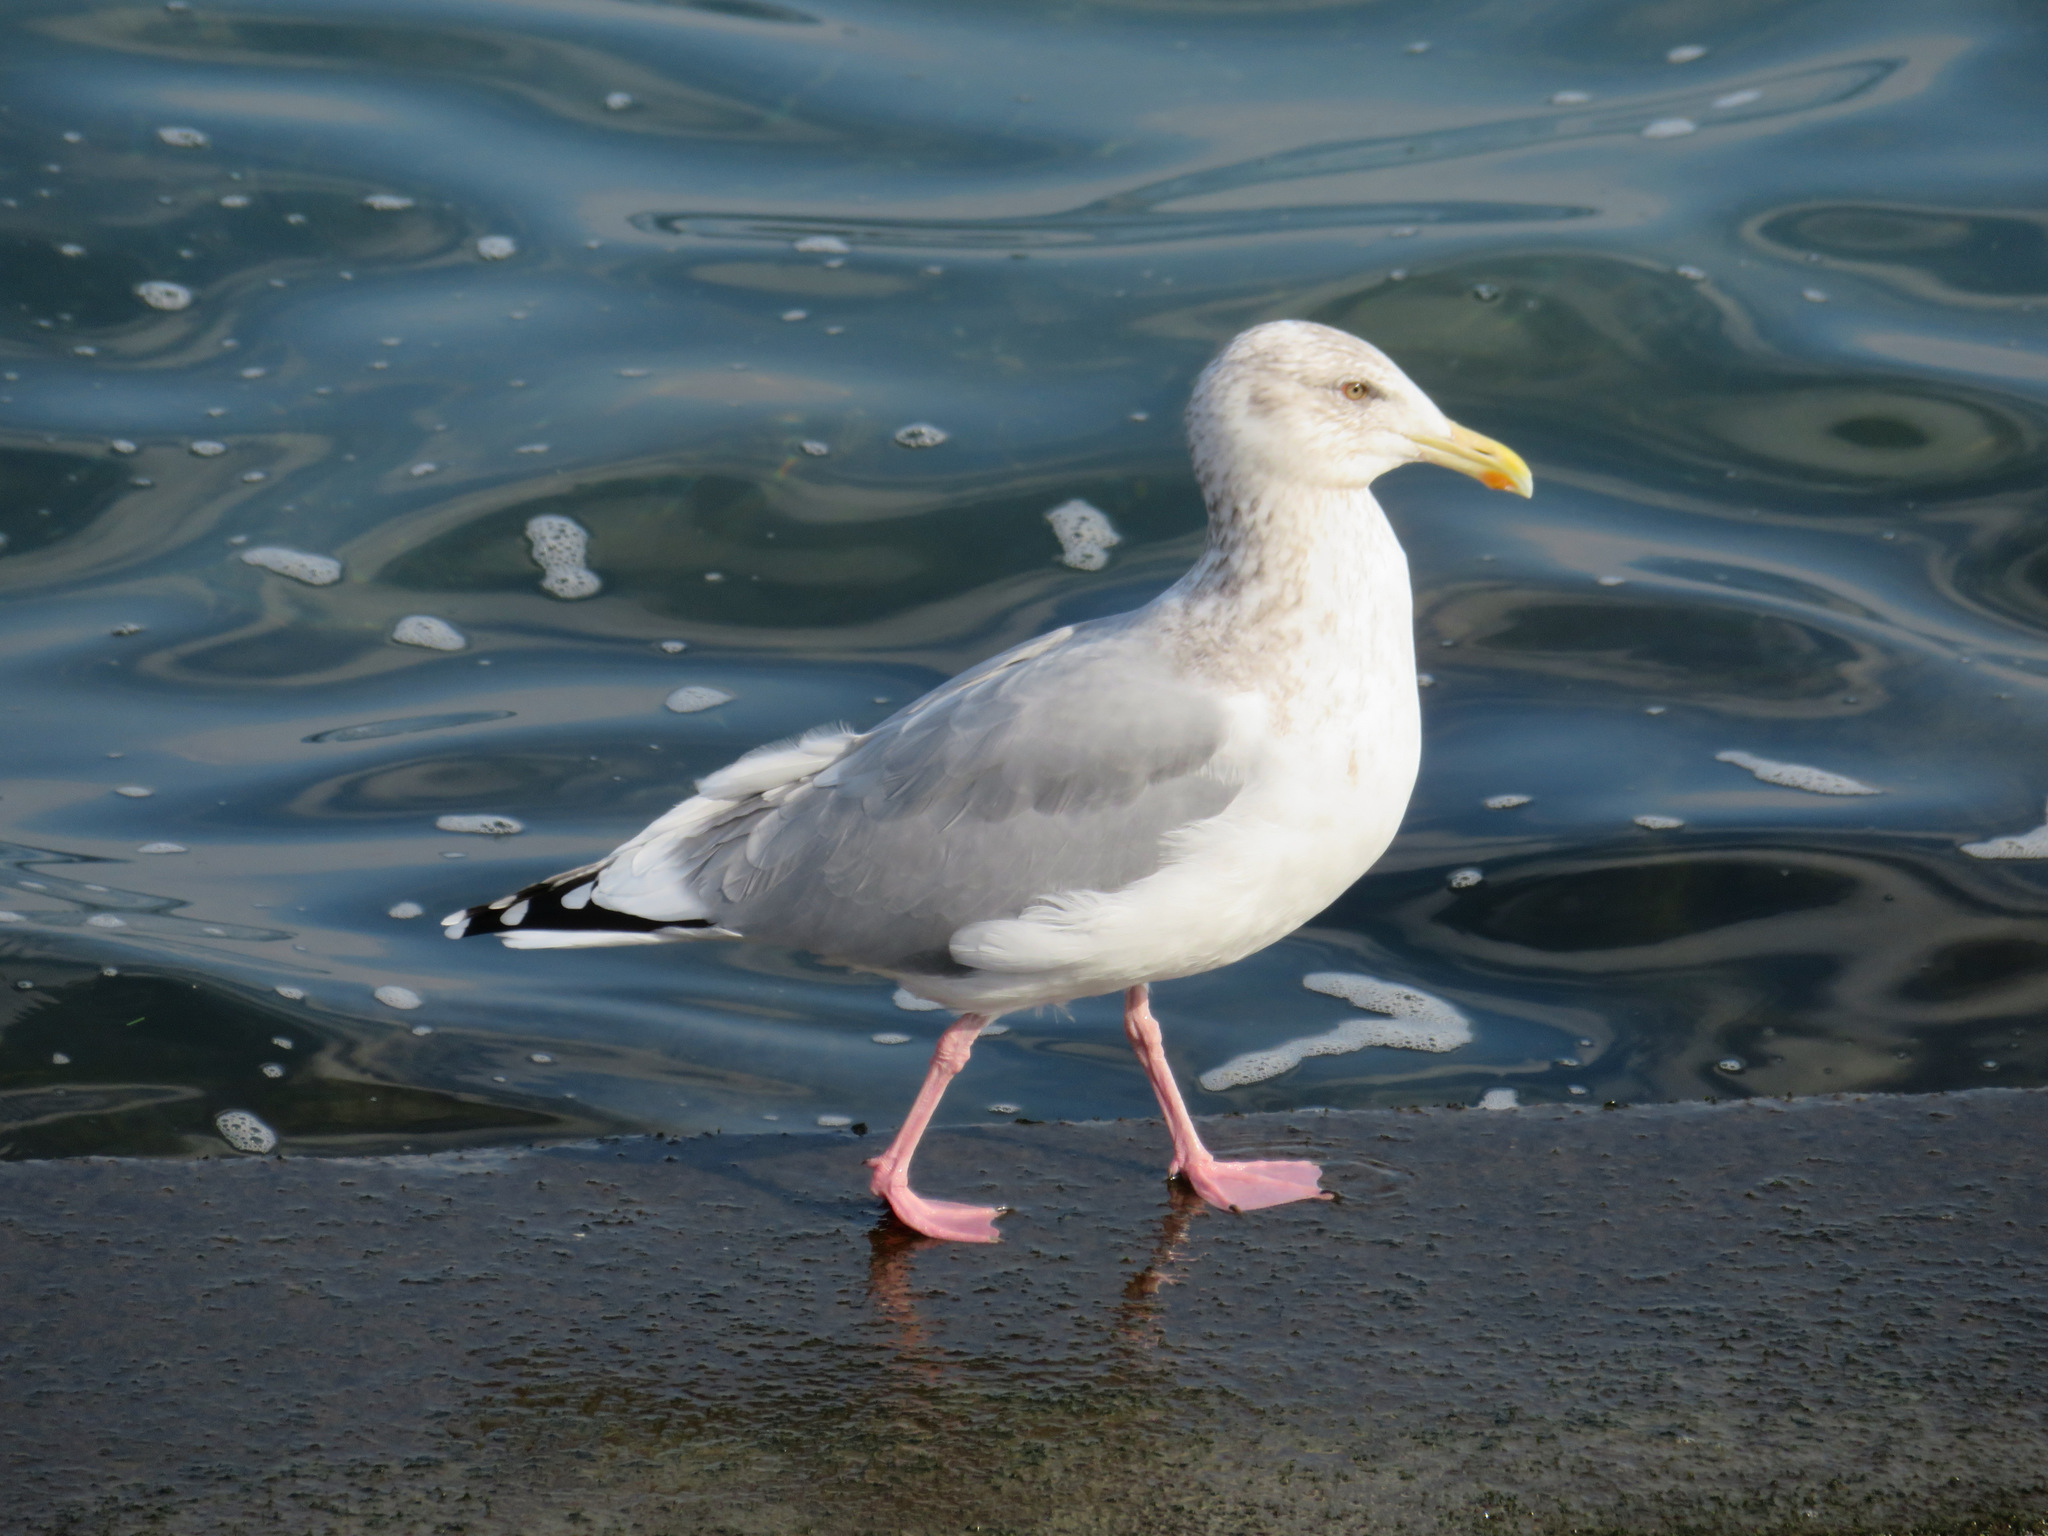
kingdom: Animalia
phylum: Chordata
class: Aves
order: Charadriiformes
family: Laridae
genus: Larus
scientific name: Larus vegae
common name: Vega gull
